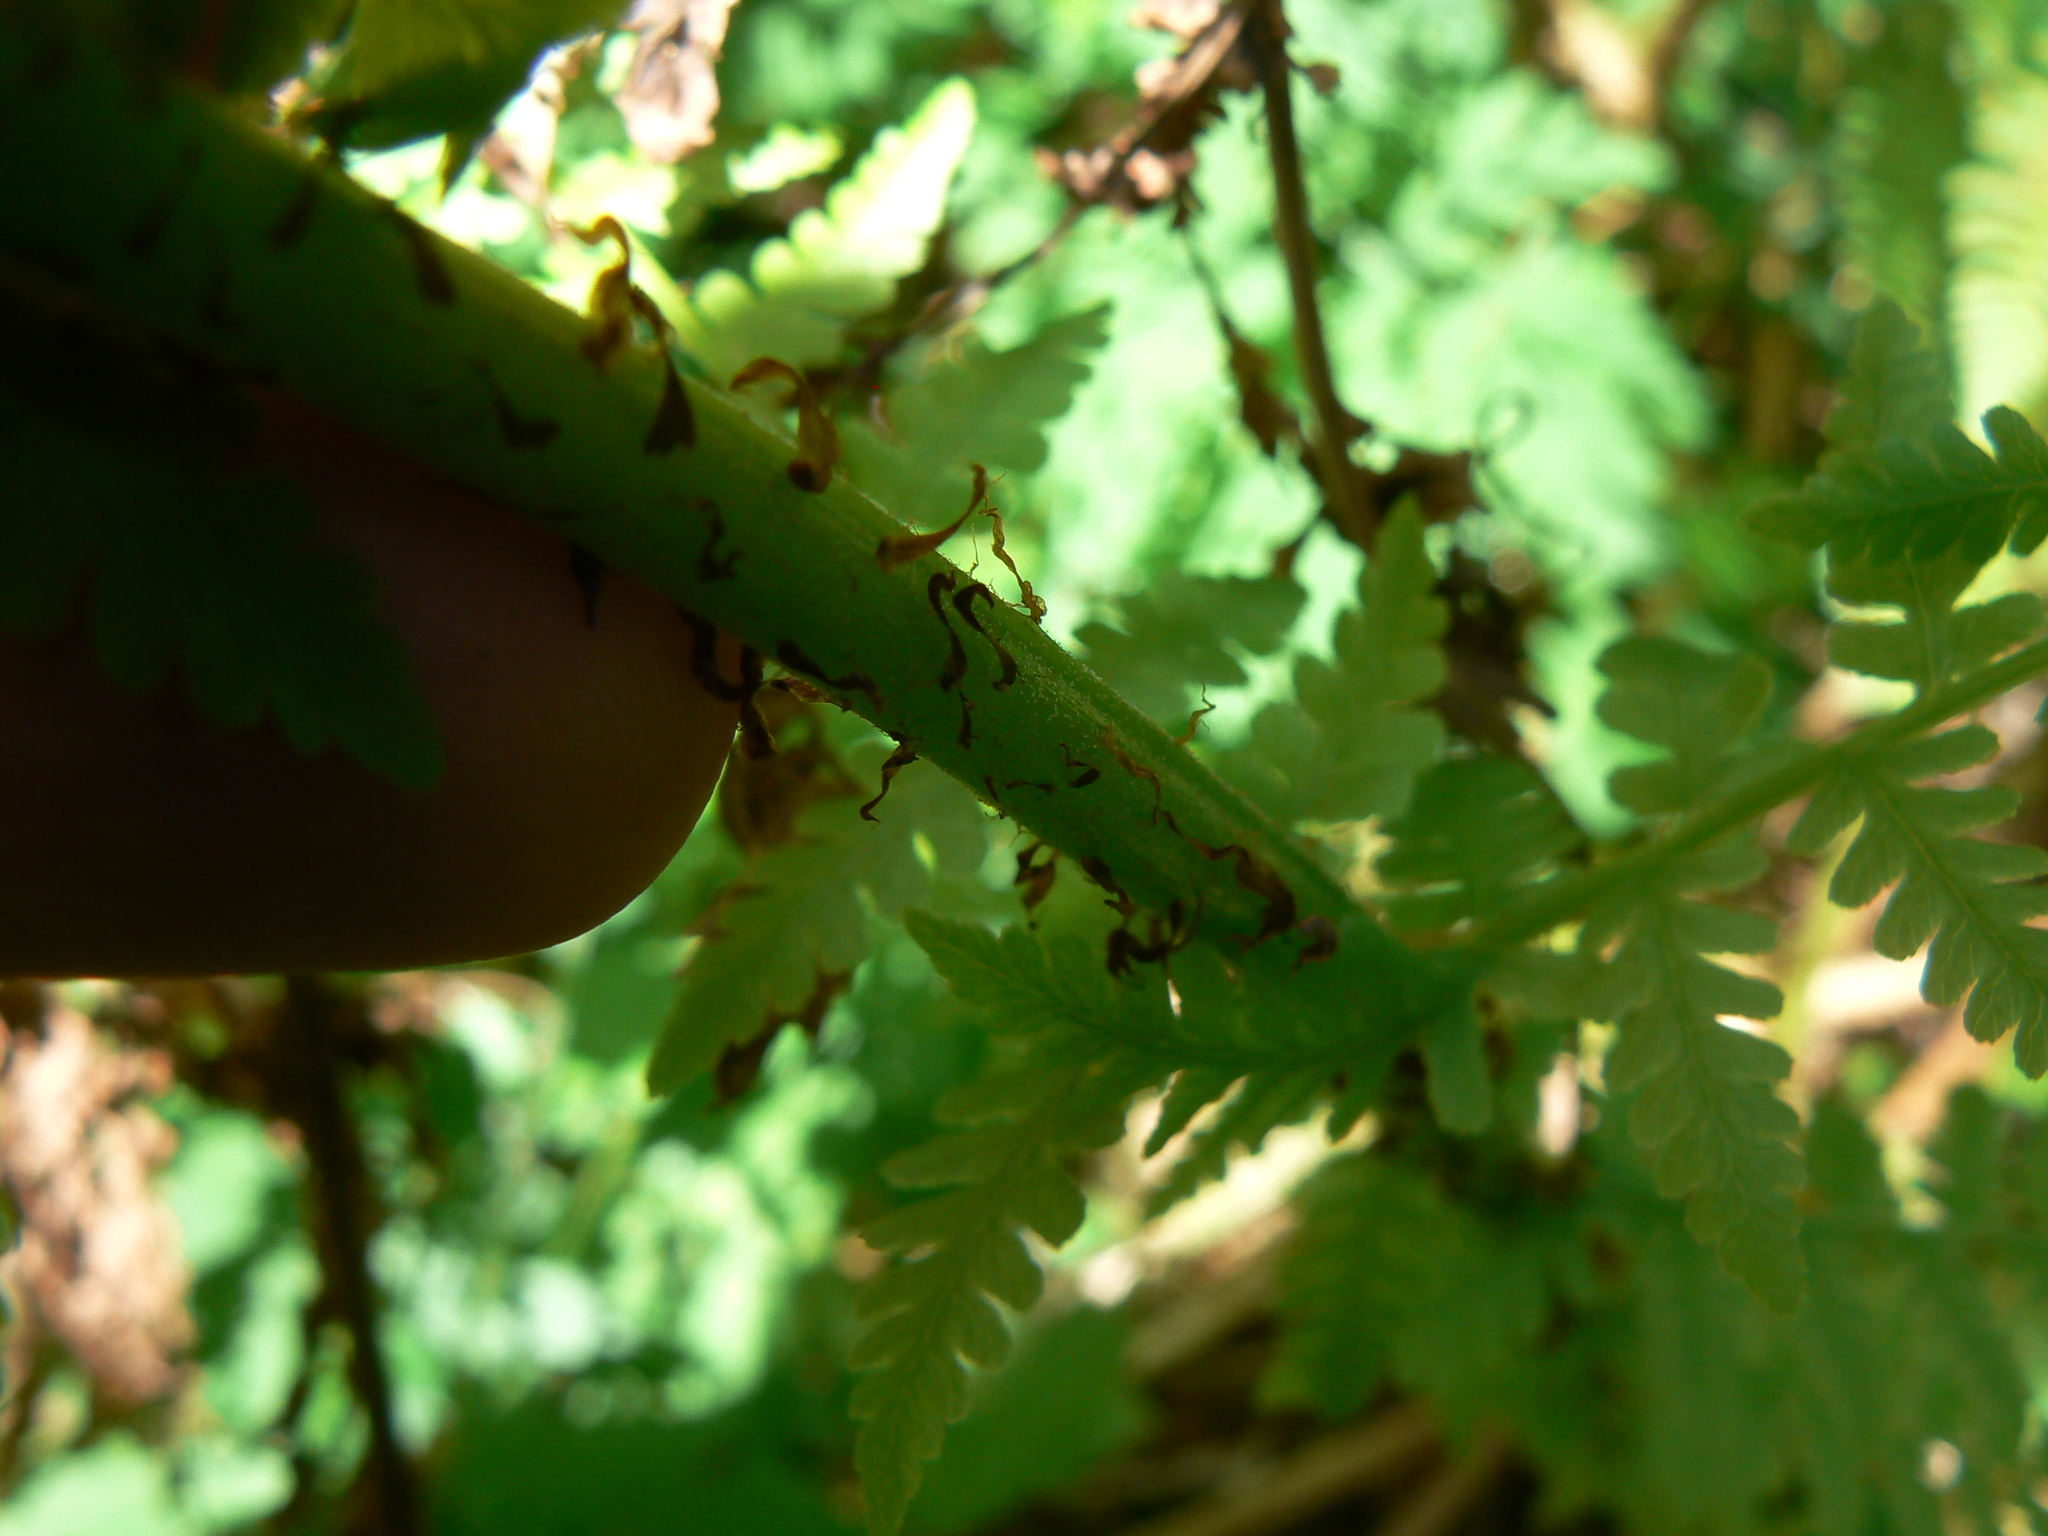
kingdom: Plantae
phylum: Tracheophyta
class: Polypodiopsida
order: Polypodiales
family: Athyriaceae
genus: Athyrium
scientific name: Athyrium cyclosorum
